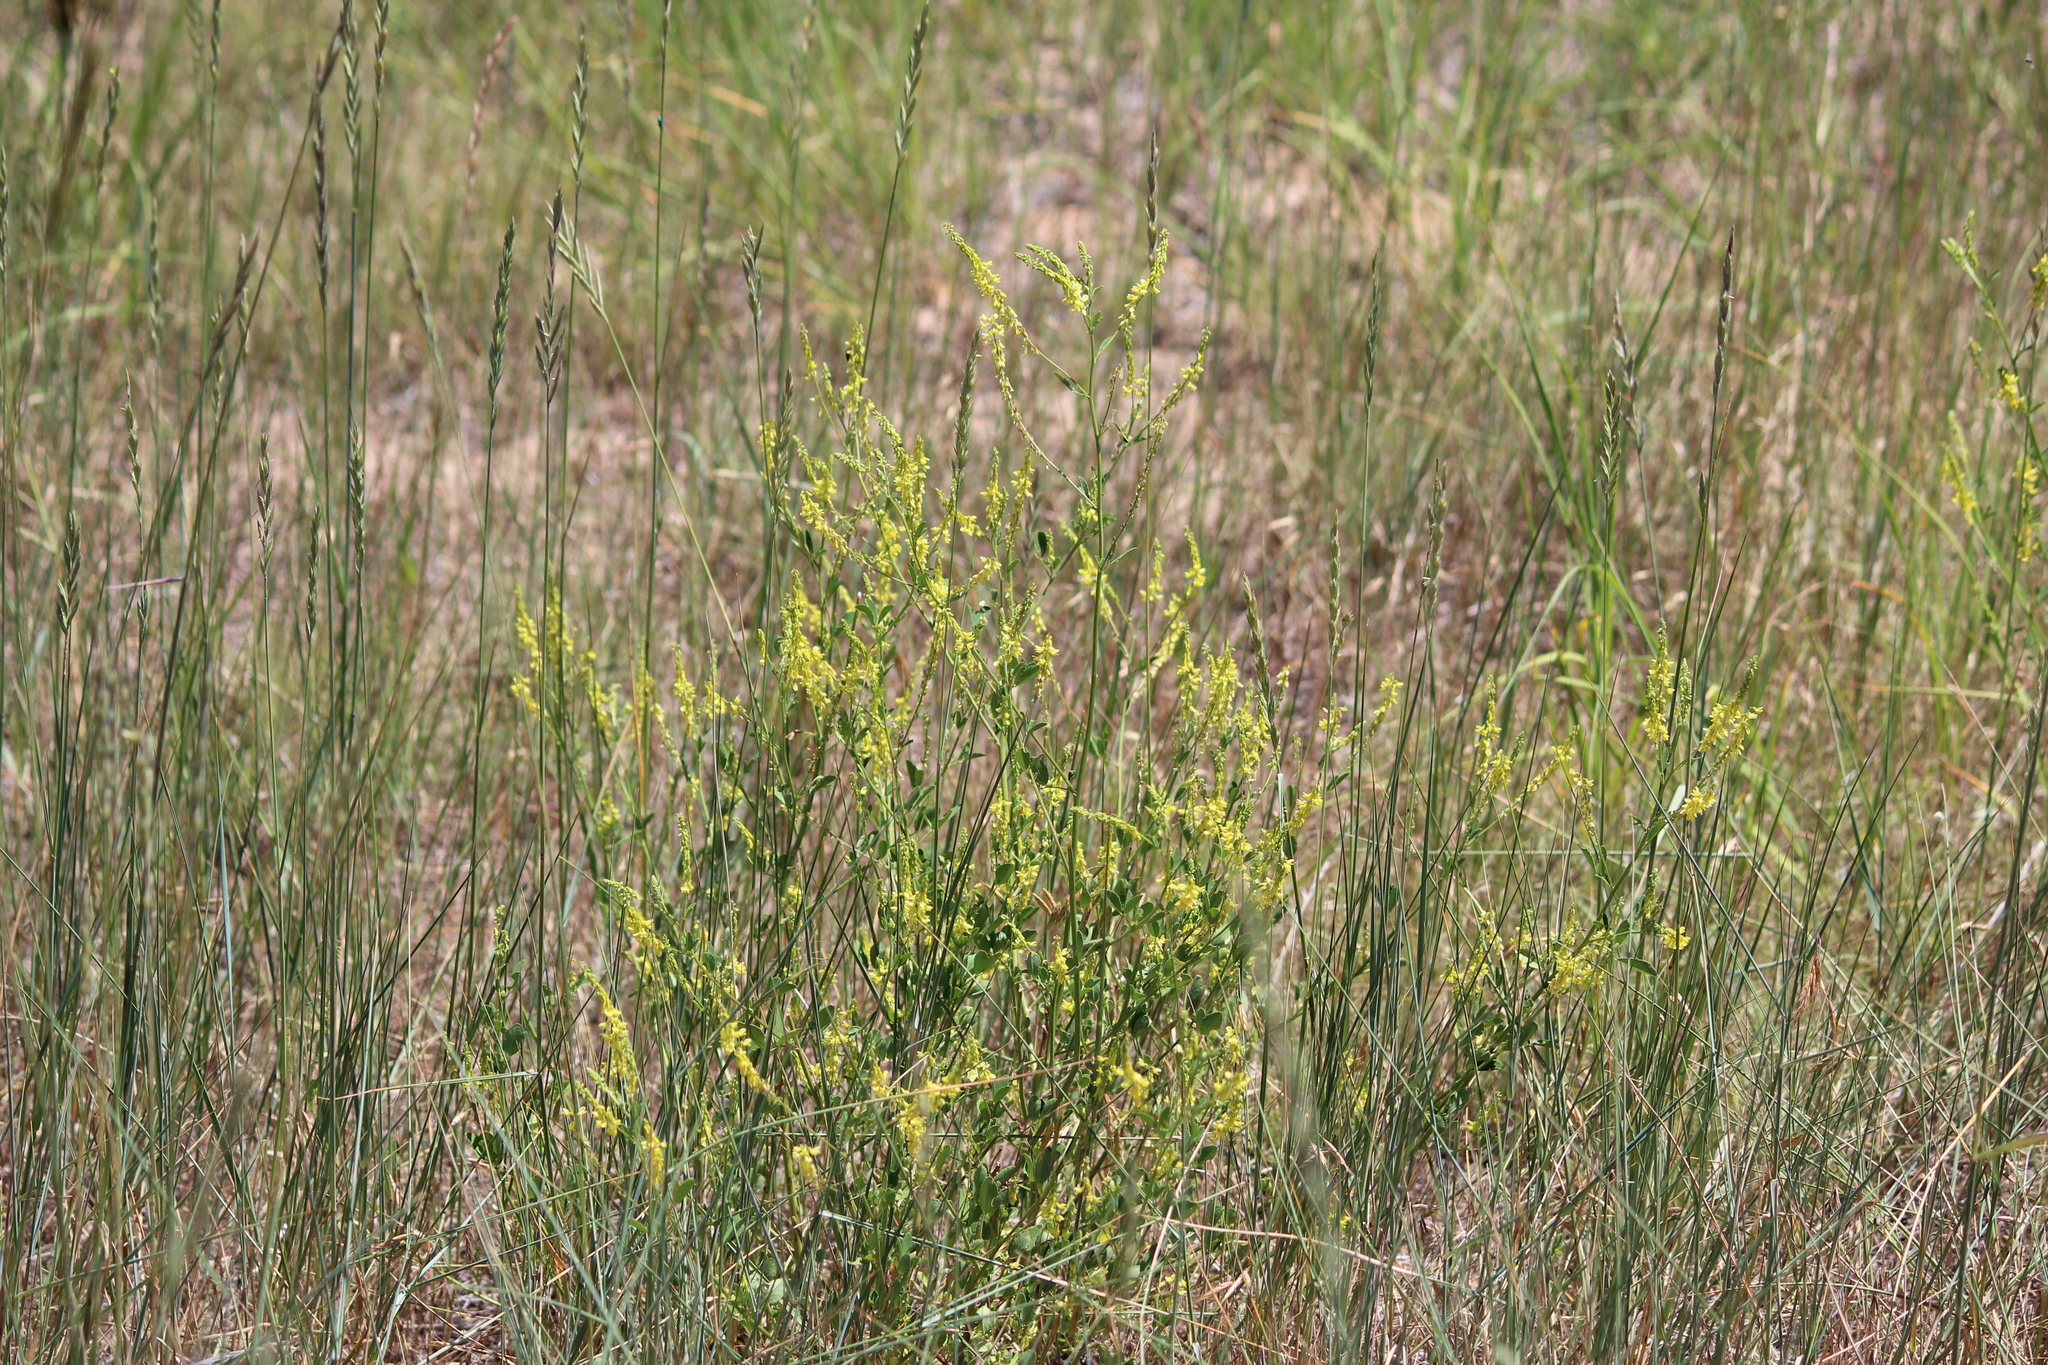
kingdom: Plantae
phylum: Tracheophyta
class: Magnoliopsida
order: Fabales
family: Fabaceae
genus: Melilotus
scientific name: Melilotus officinalis
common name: Sweetclover
